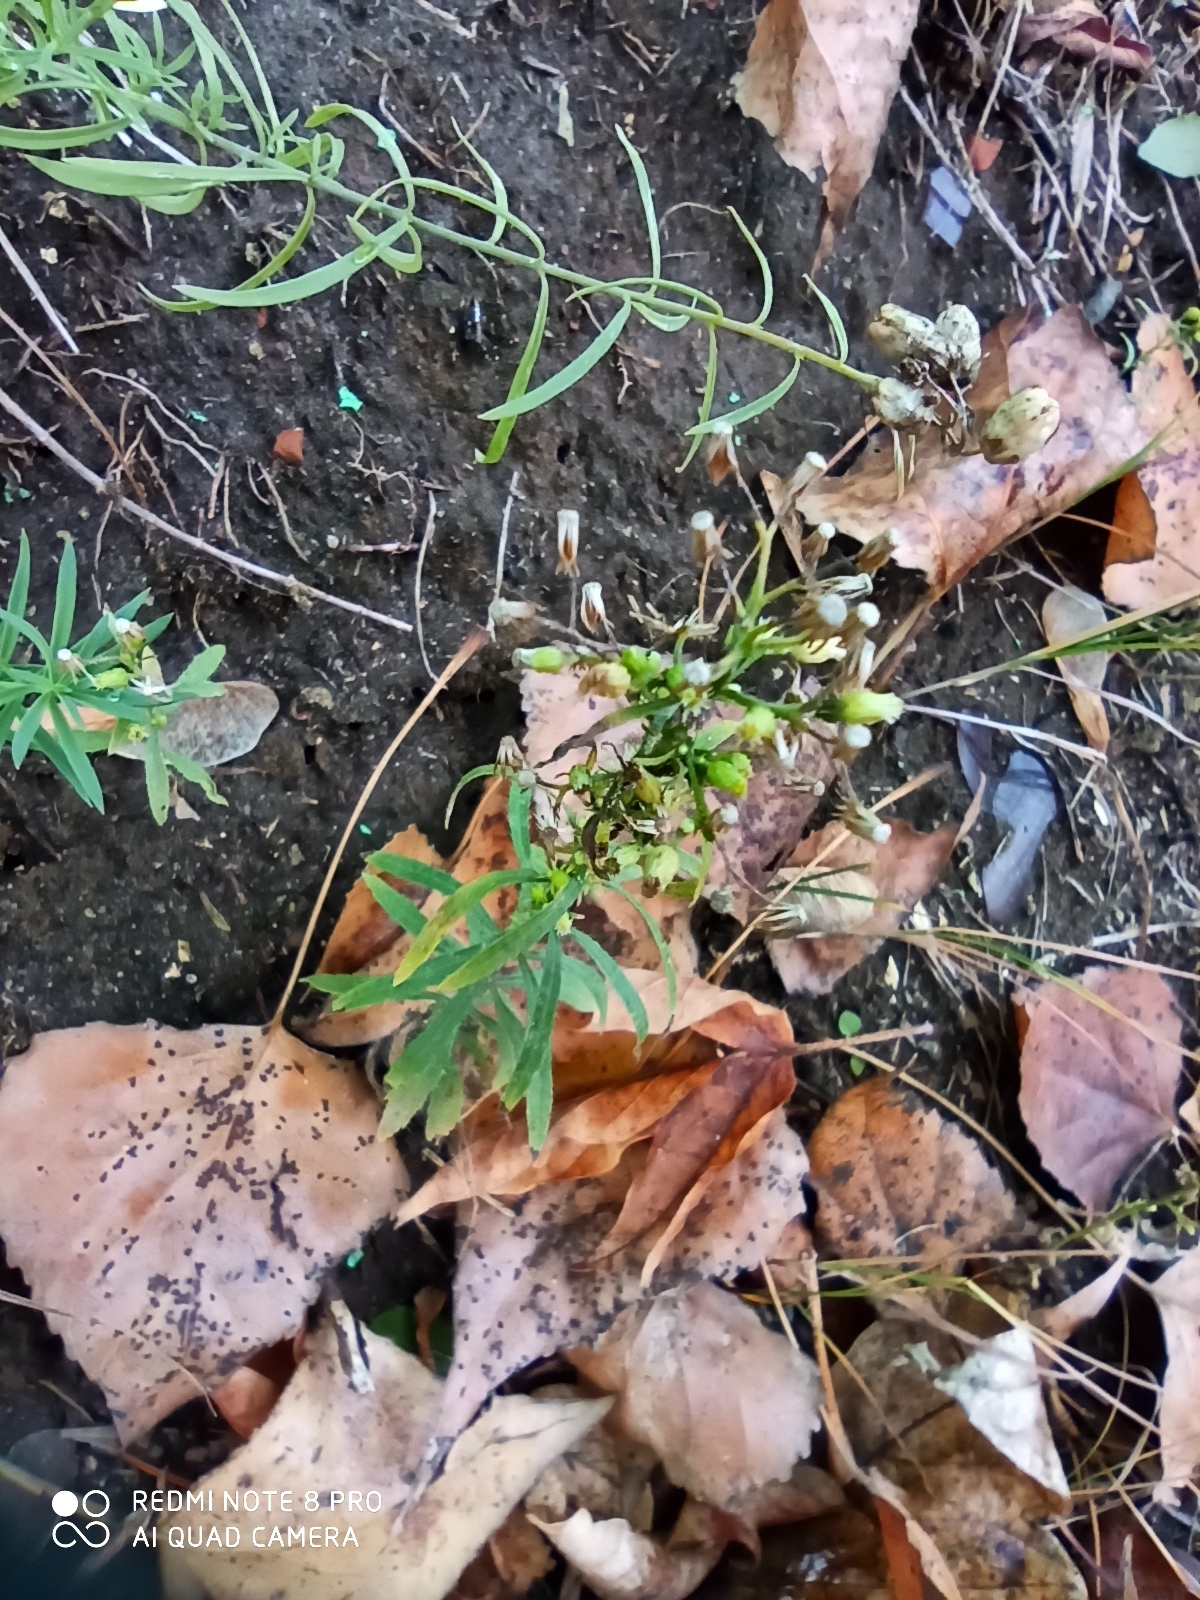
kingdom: Plantae
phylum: Tracheophyta
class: Magnoliopsida
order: Asterales
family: Asteraceae
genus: Erigeron
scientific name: Erigeron canadensis
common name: Canadian fleabane
